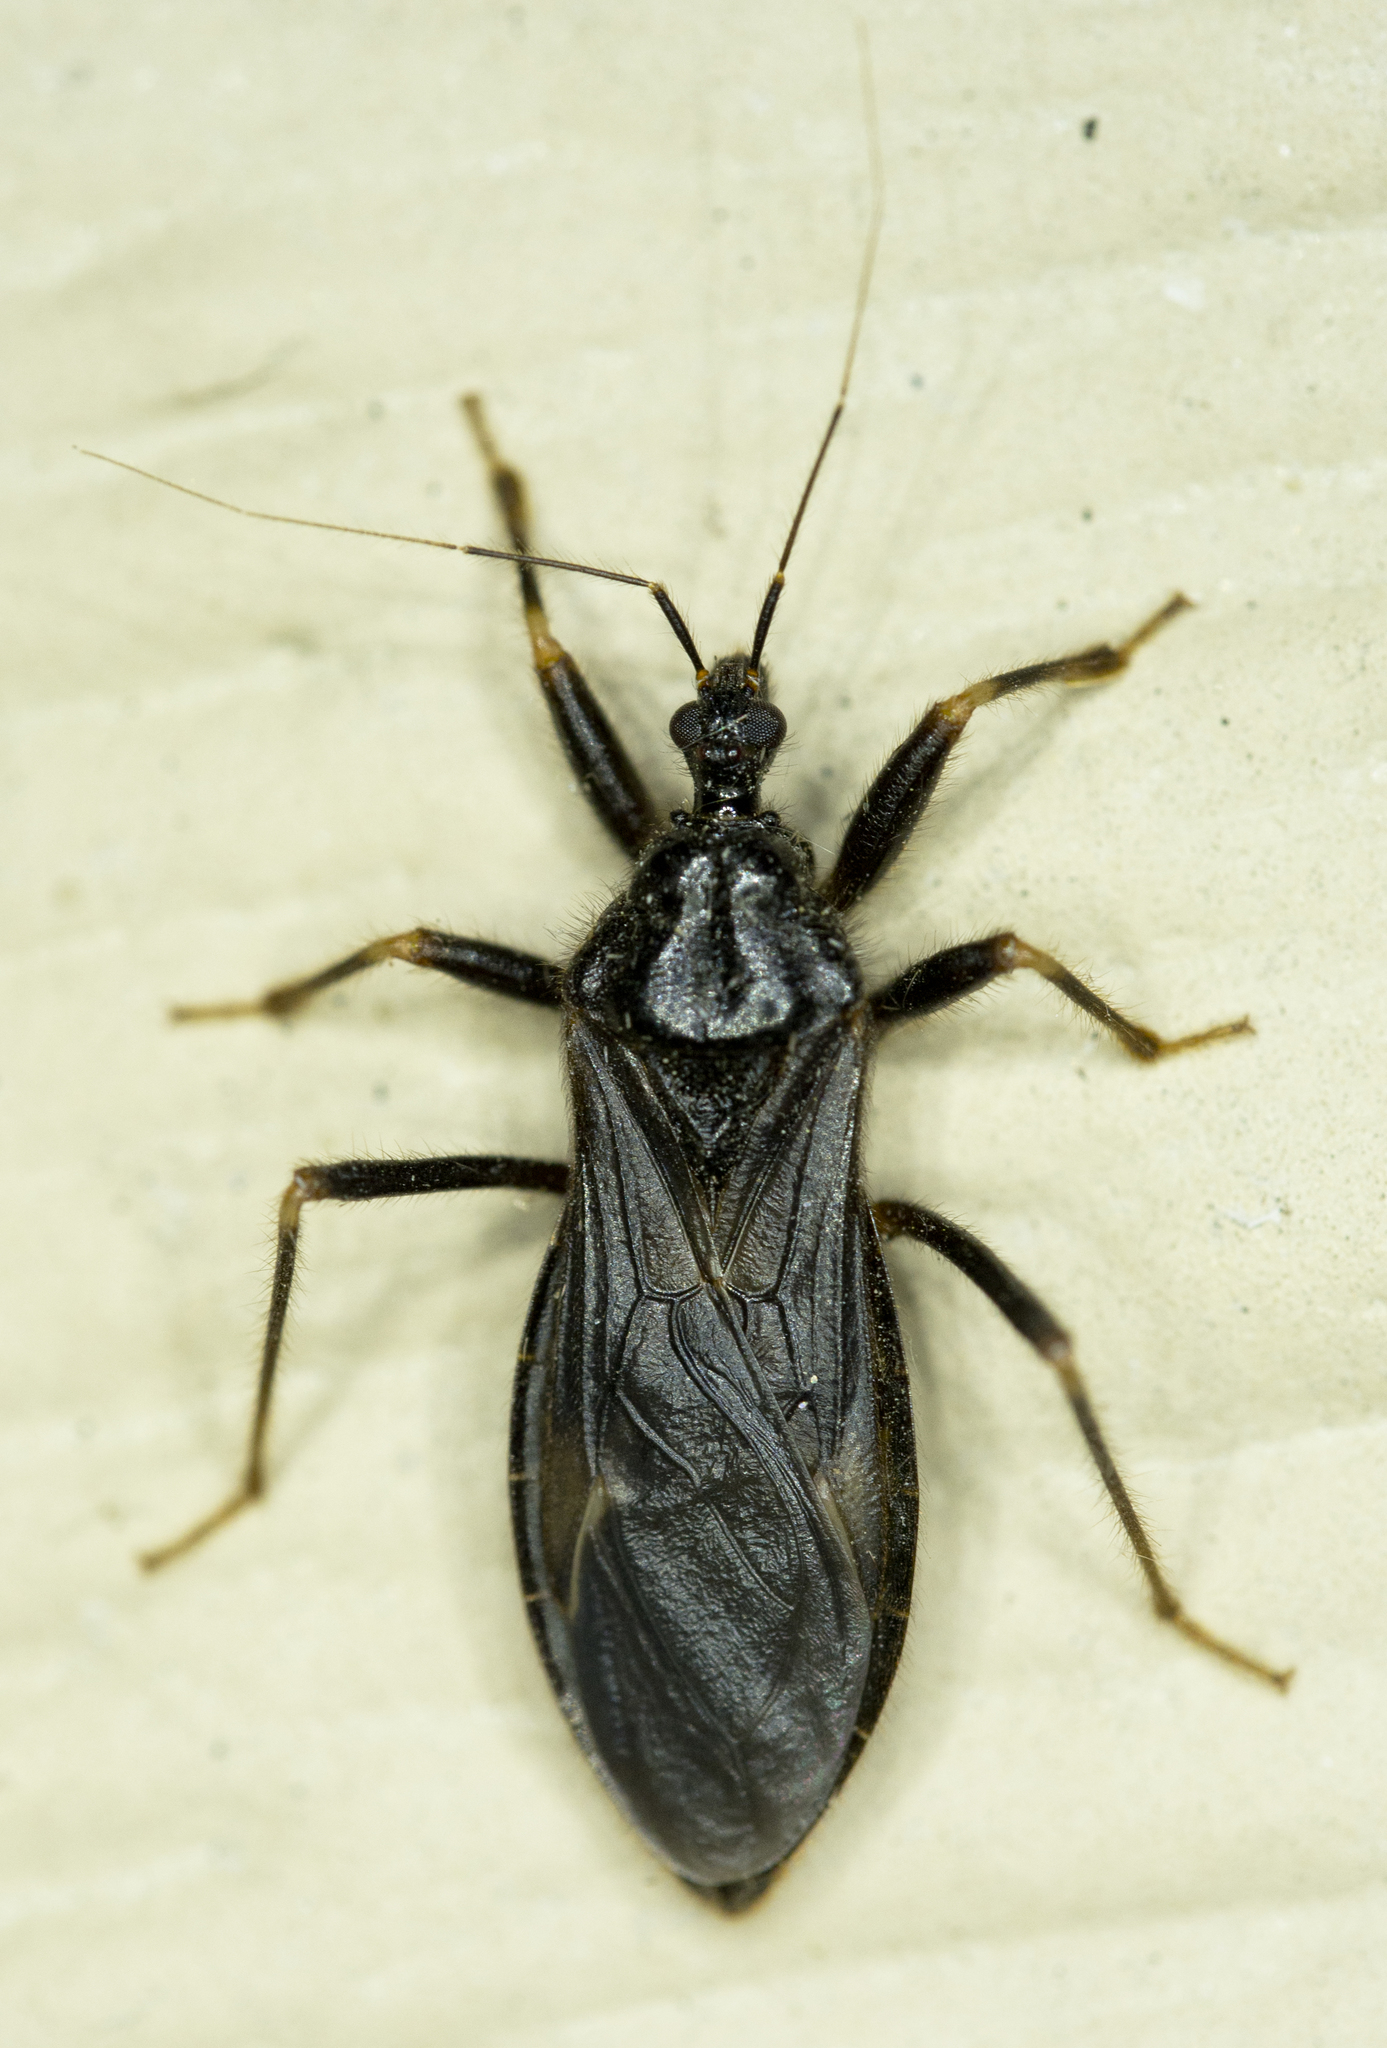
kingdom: Animalia
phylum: Arthropoda
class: Insecta
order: Hemiptera
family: Reduviidae
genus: Reduvius
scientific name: Reduvius personatus
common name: Masked hunter
